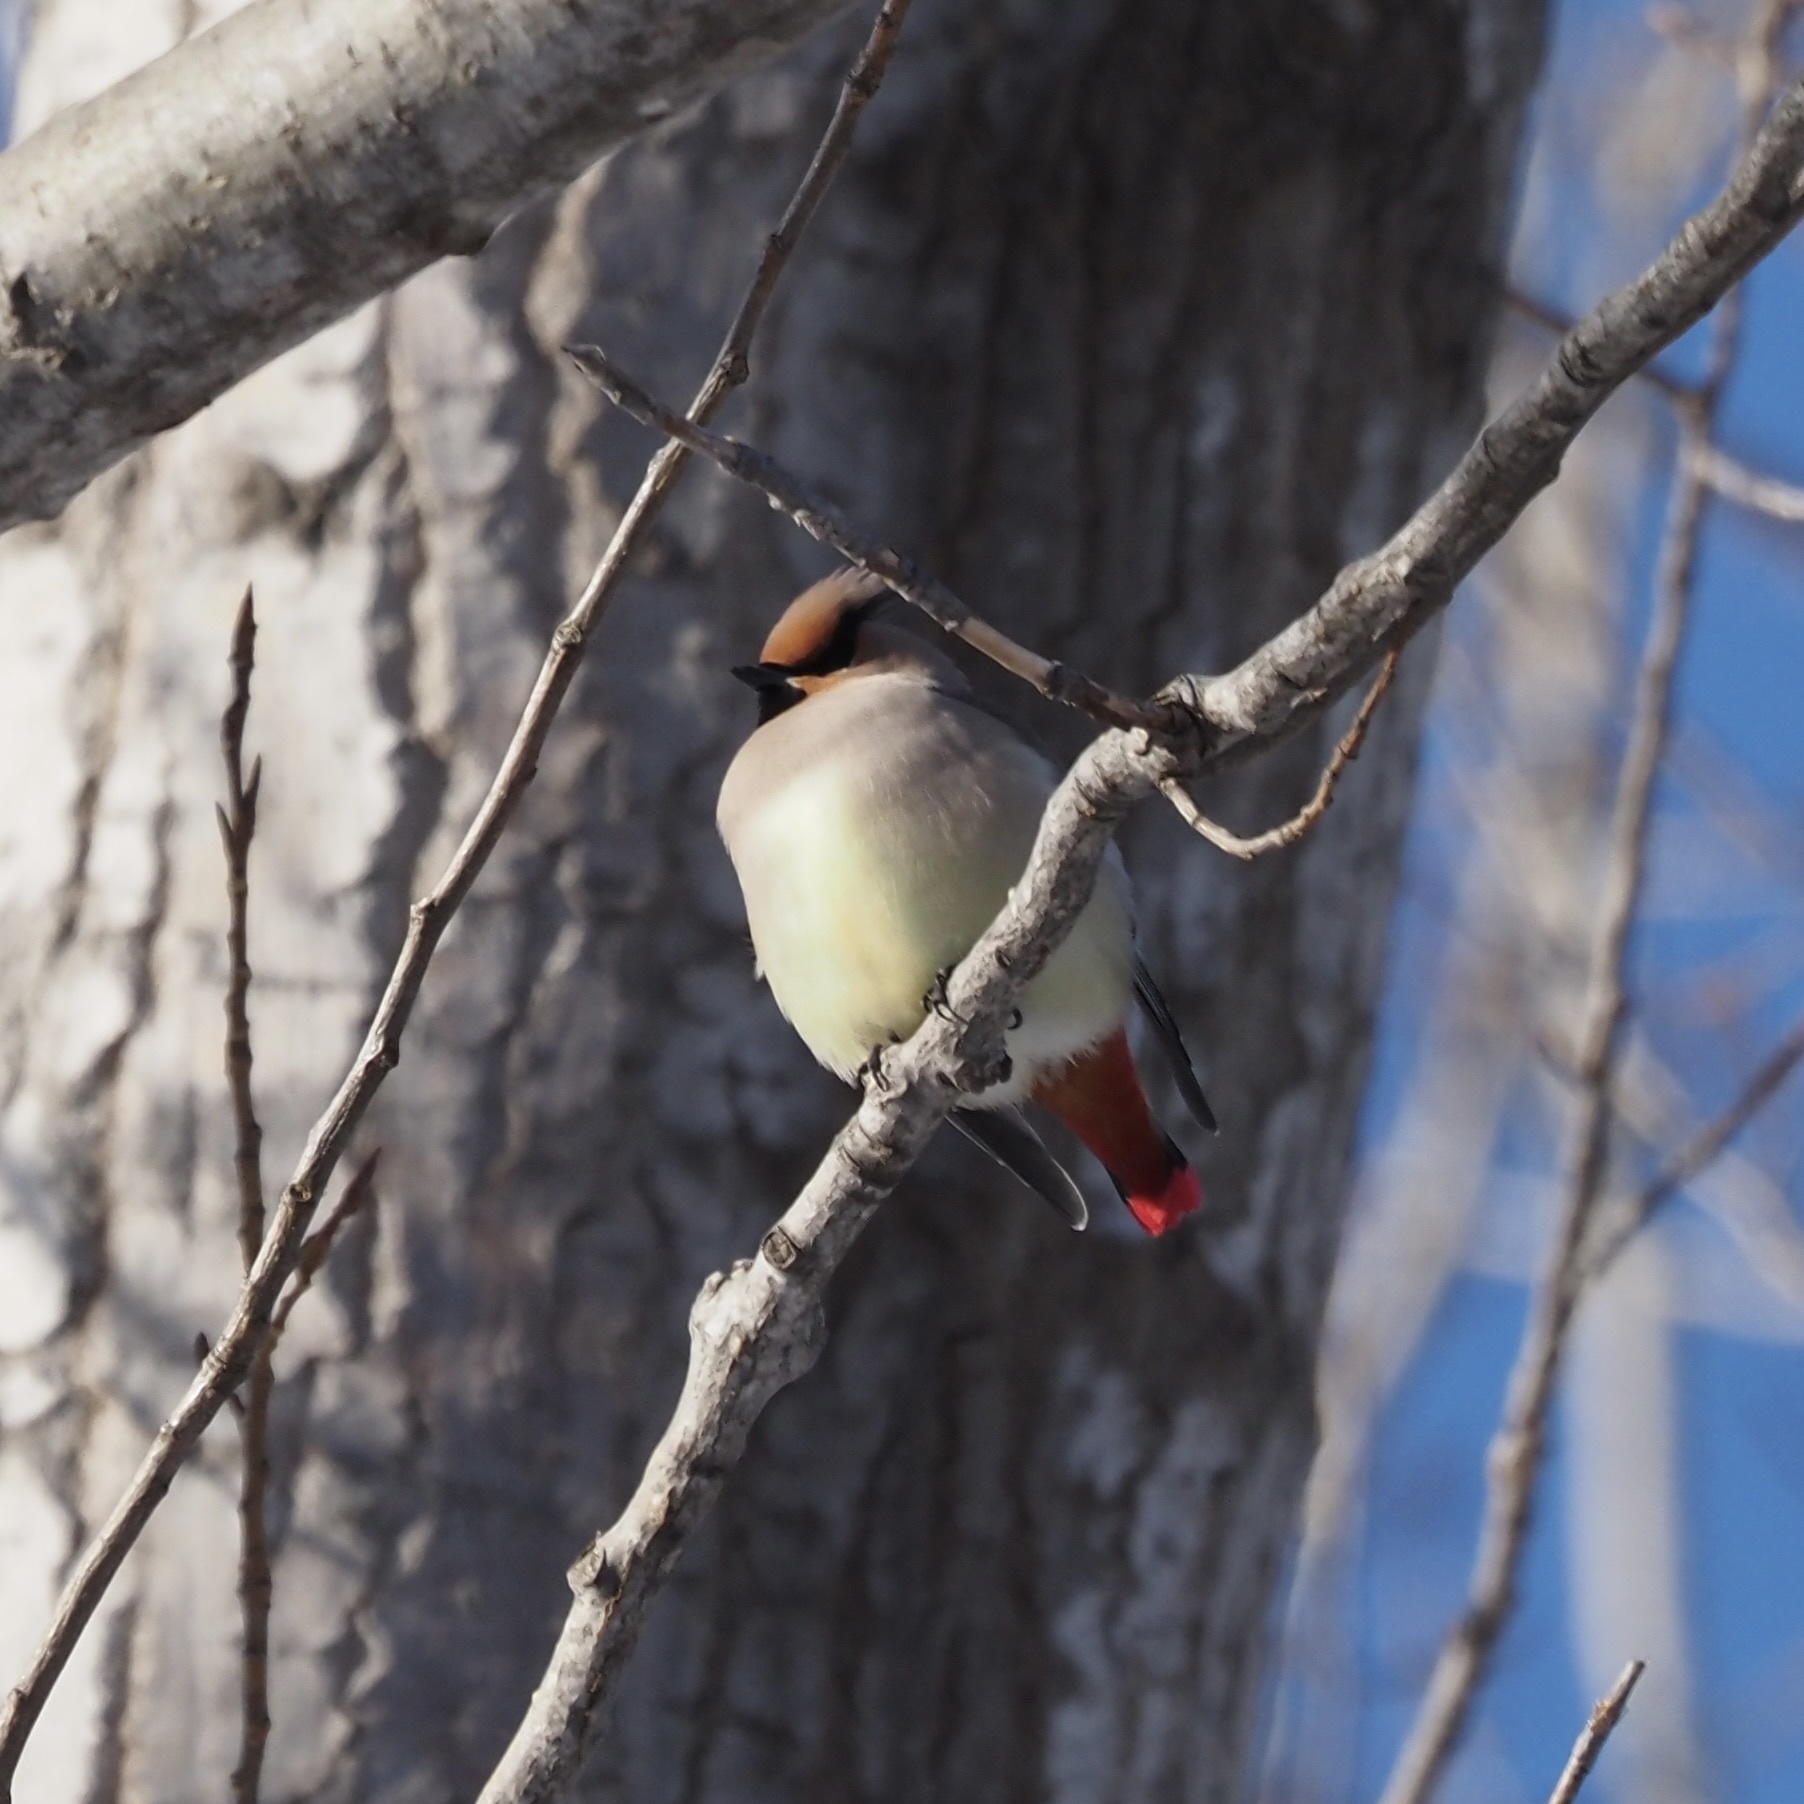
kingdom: Animalia
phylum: Chordata
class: Aves
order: Passeriformes
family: Bombycillidae
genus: Bombycilla
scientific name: Bombycilla japonica
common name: Japanese waxwing
